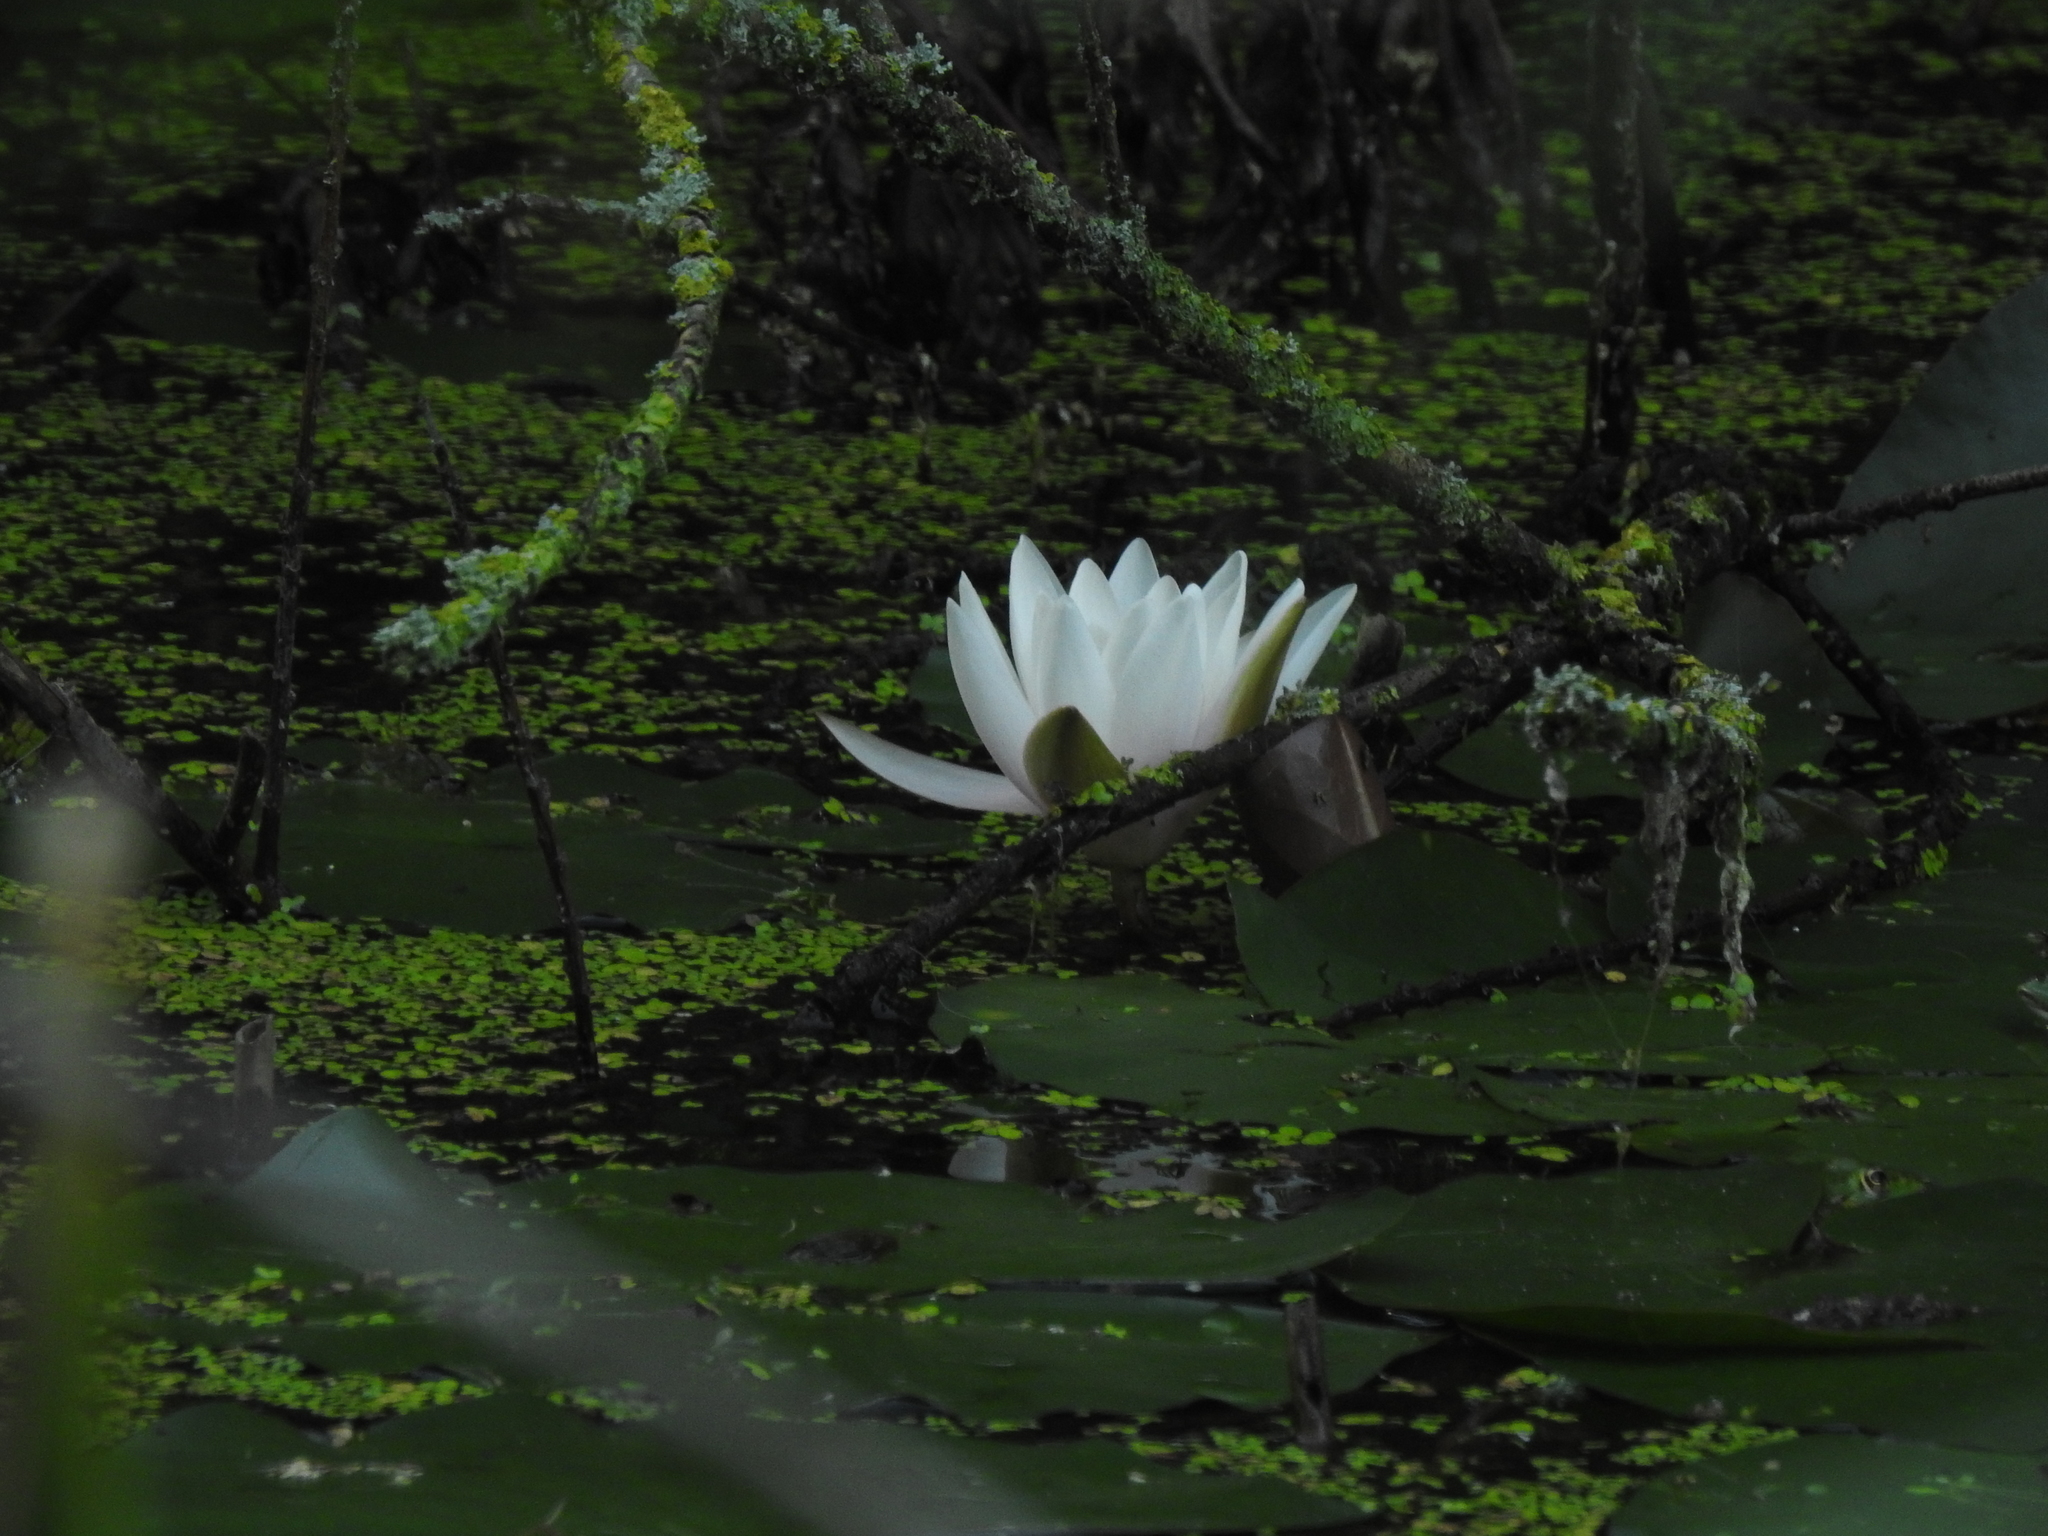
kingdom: Plantae
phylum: Tracheophyta
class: Magnoliopsida
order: Nymphaeales
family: Nymphaeaceae
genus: Nymphaea
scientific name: Nymphaea alba
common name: White water-lily
